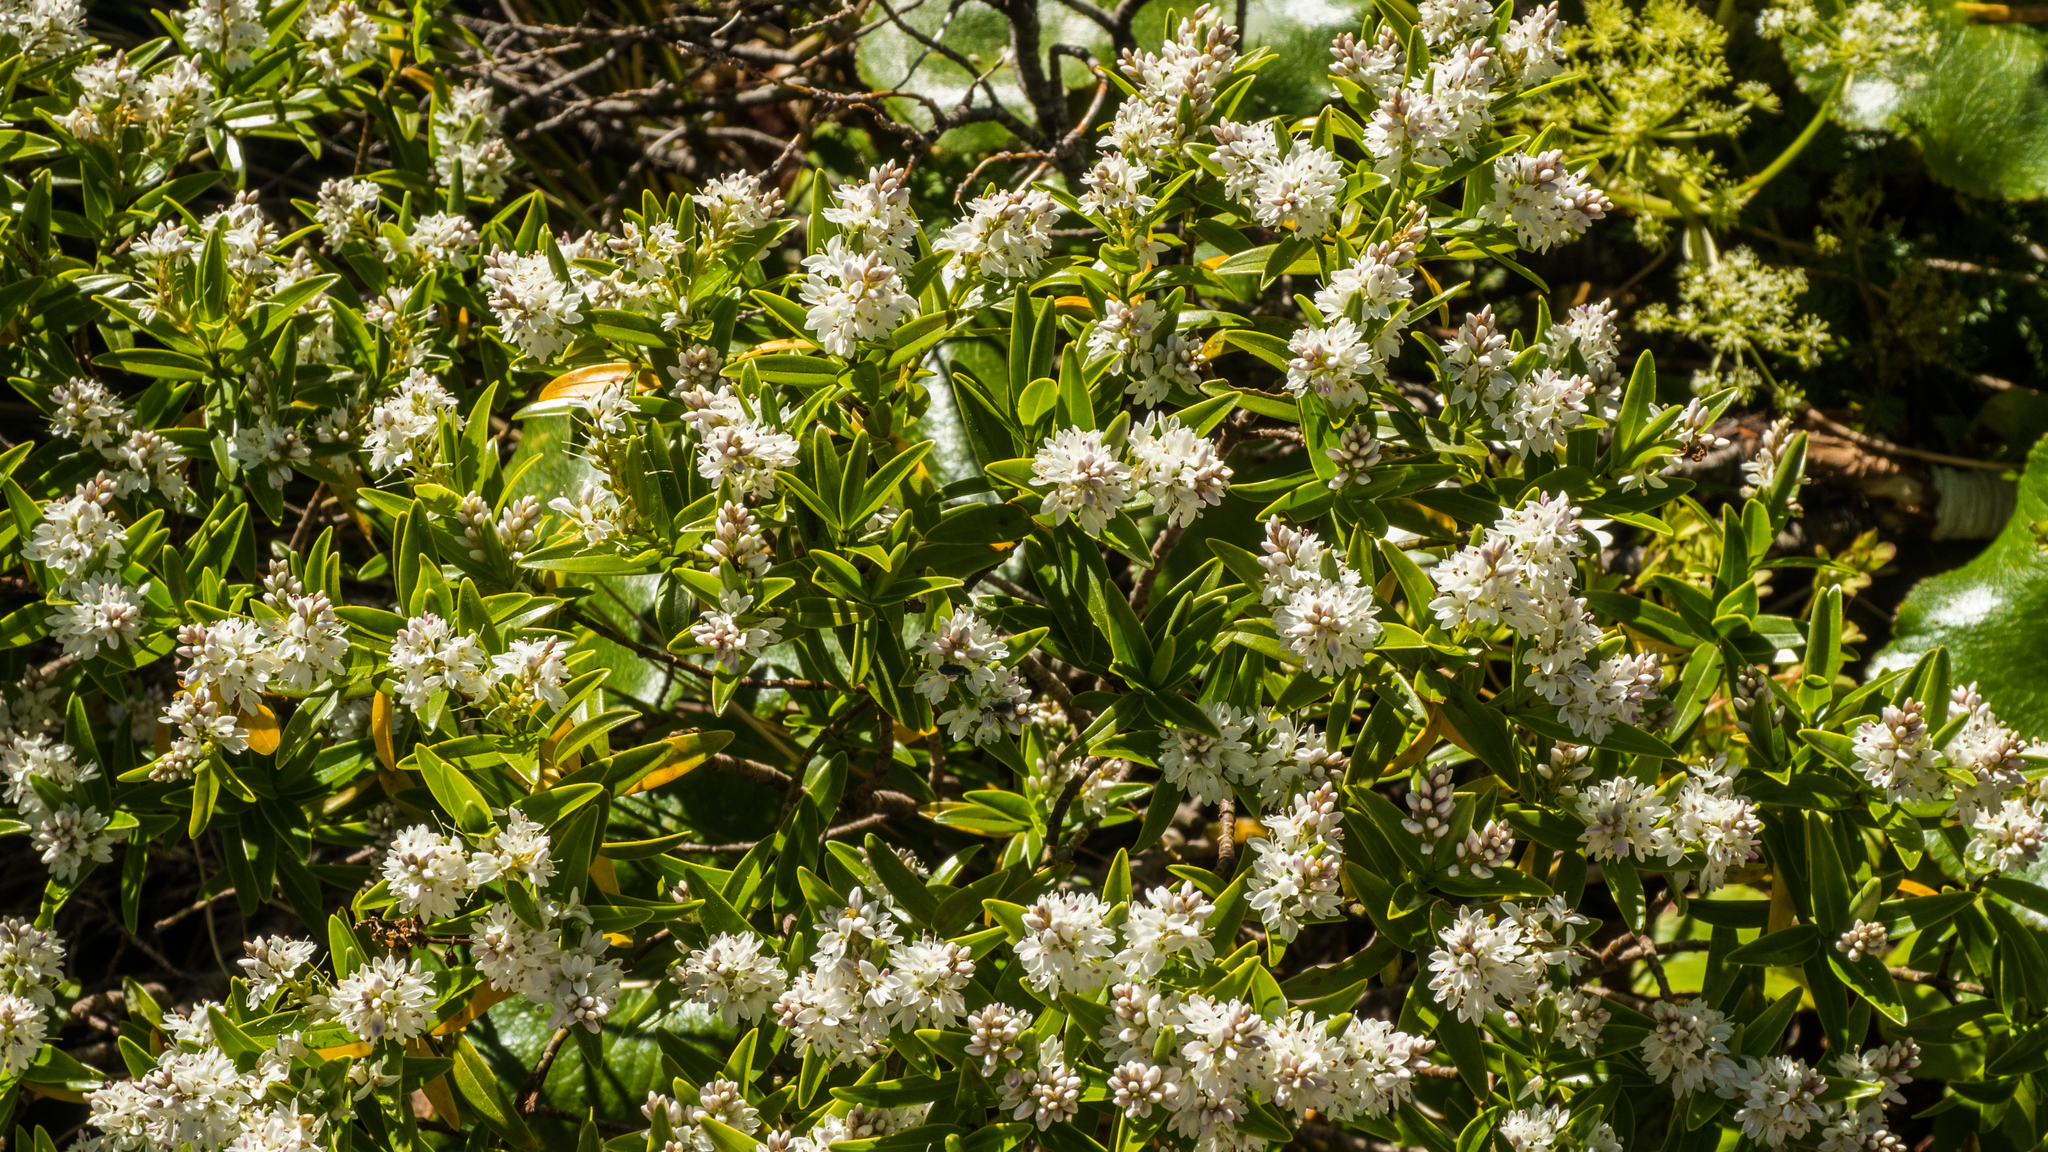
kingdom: Plantae
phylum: Tracheophyta
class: Magnoliopsida
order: Lamiales
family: Plantaginaceae
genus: Veronica
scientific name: Veronica subalpina
